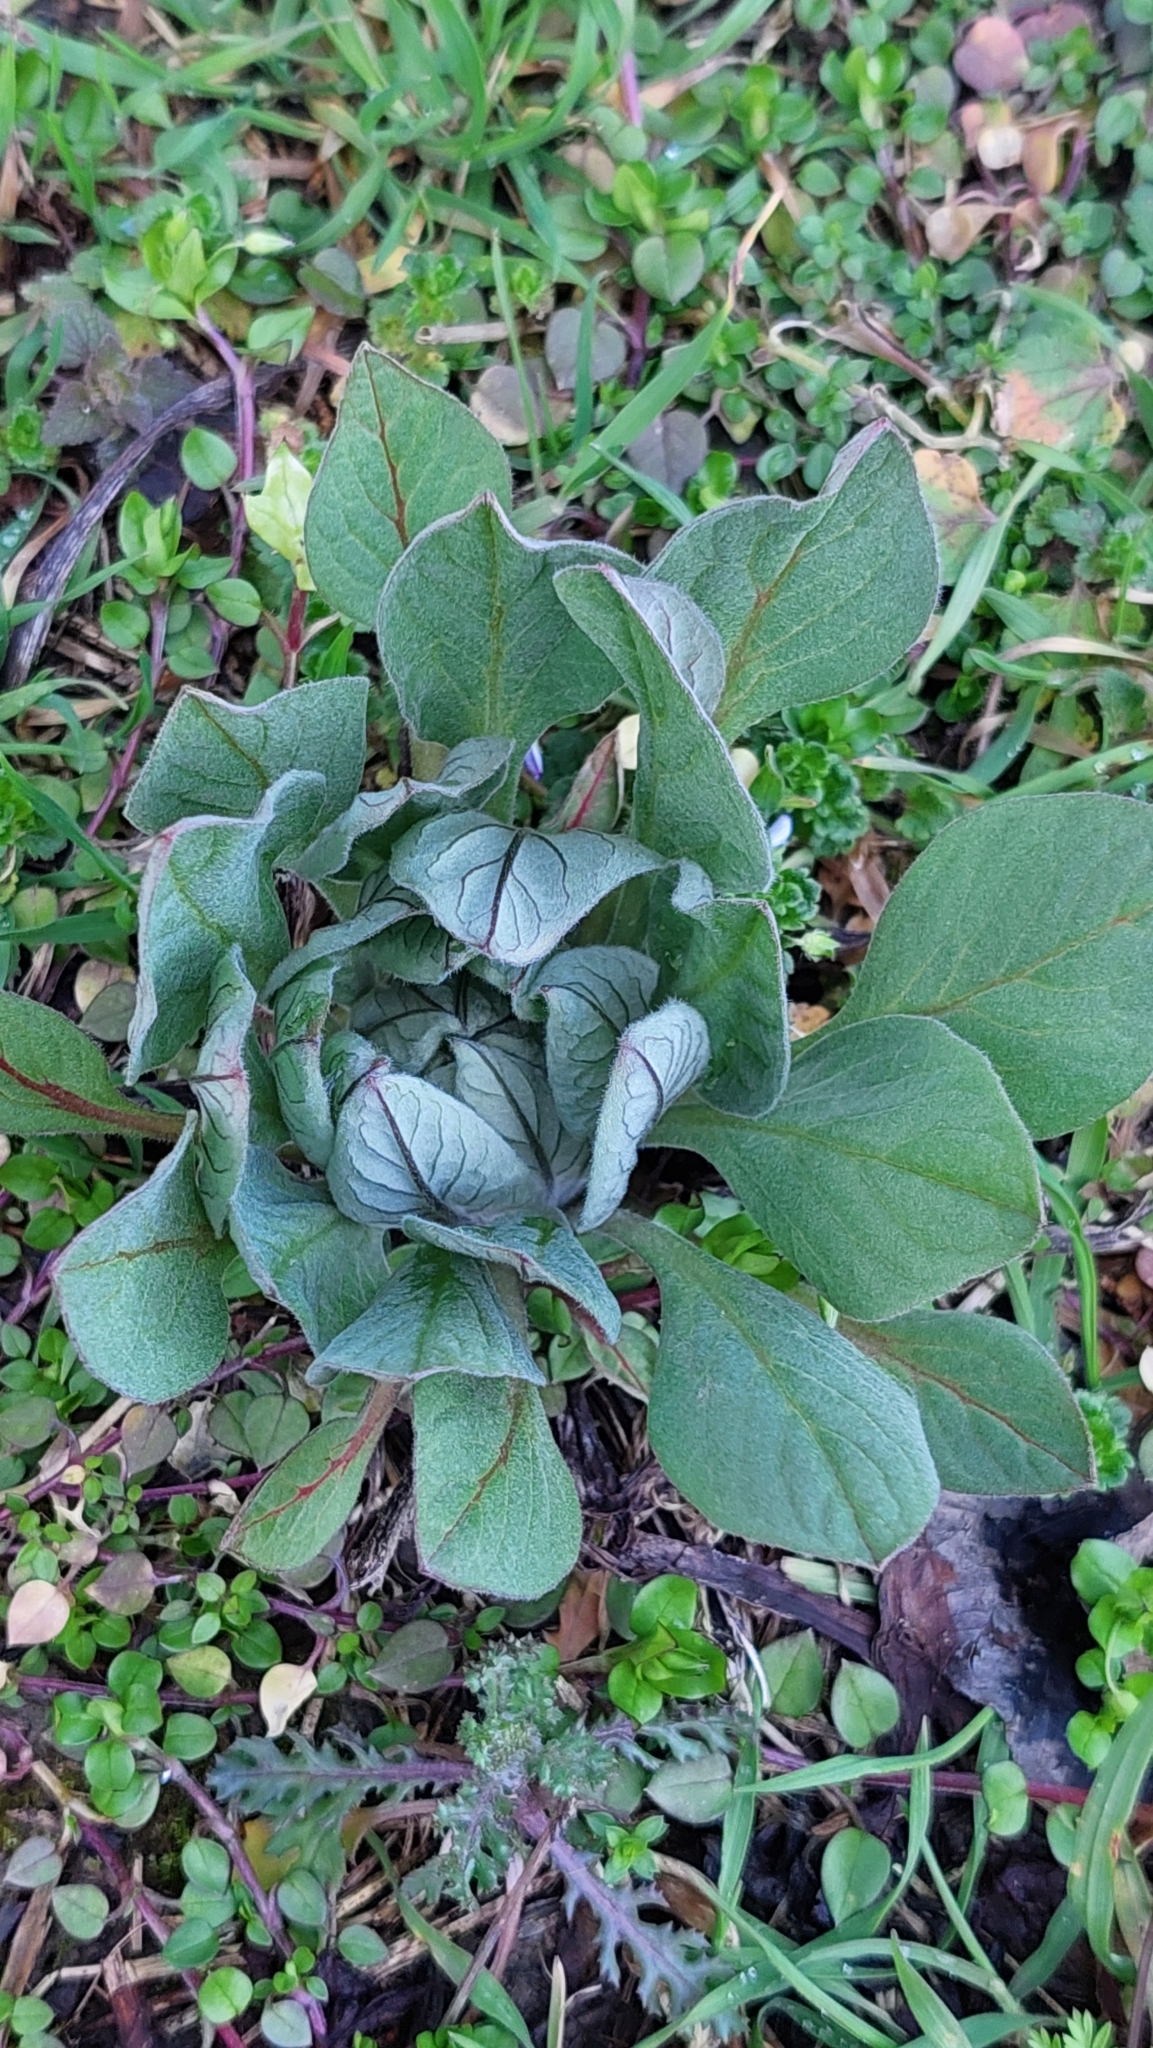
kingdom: Plantae
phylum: Tracheophyta
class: Magnoliopsida
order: Boraginales
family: Boraginaceae
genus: Solenanthus
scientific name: Solenanthus dubius
